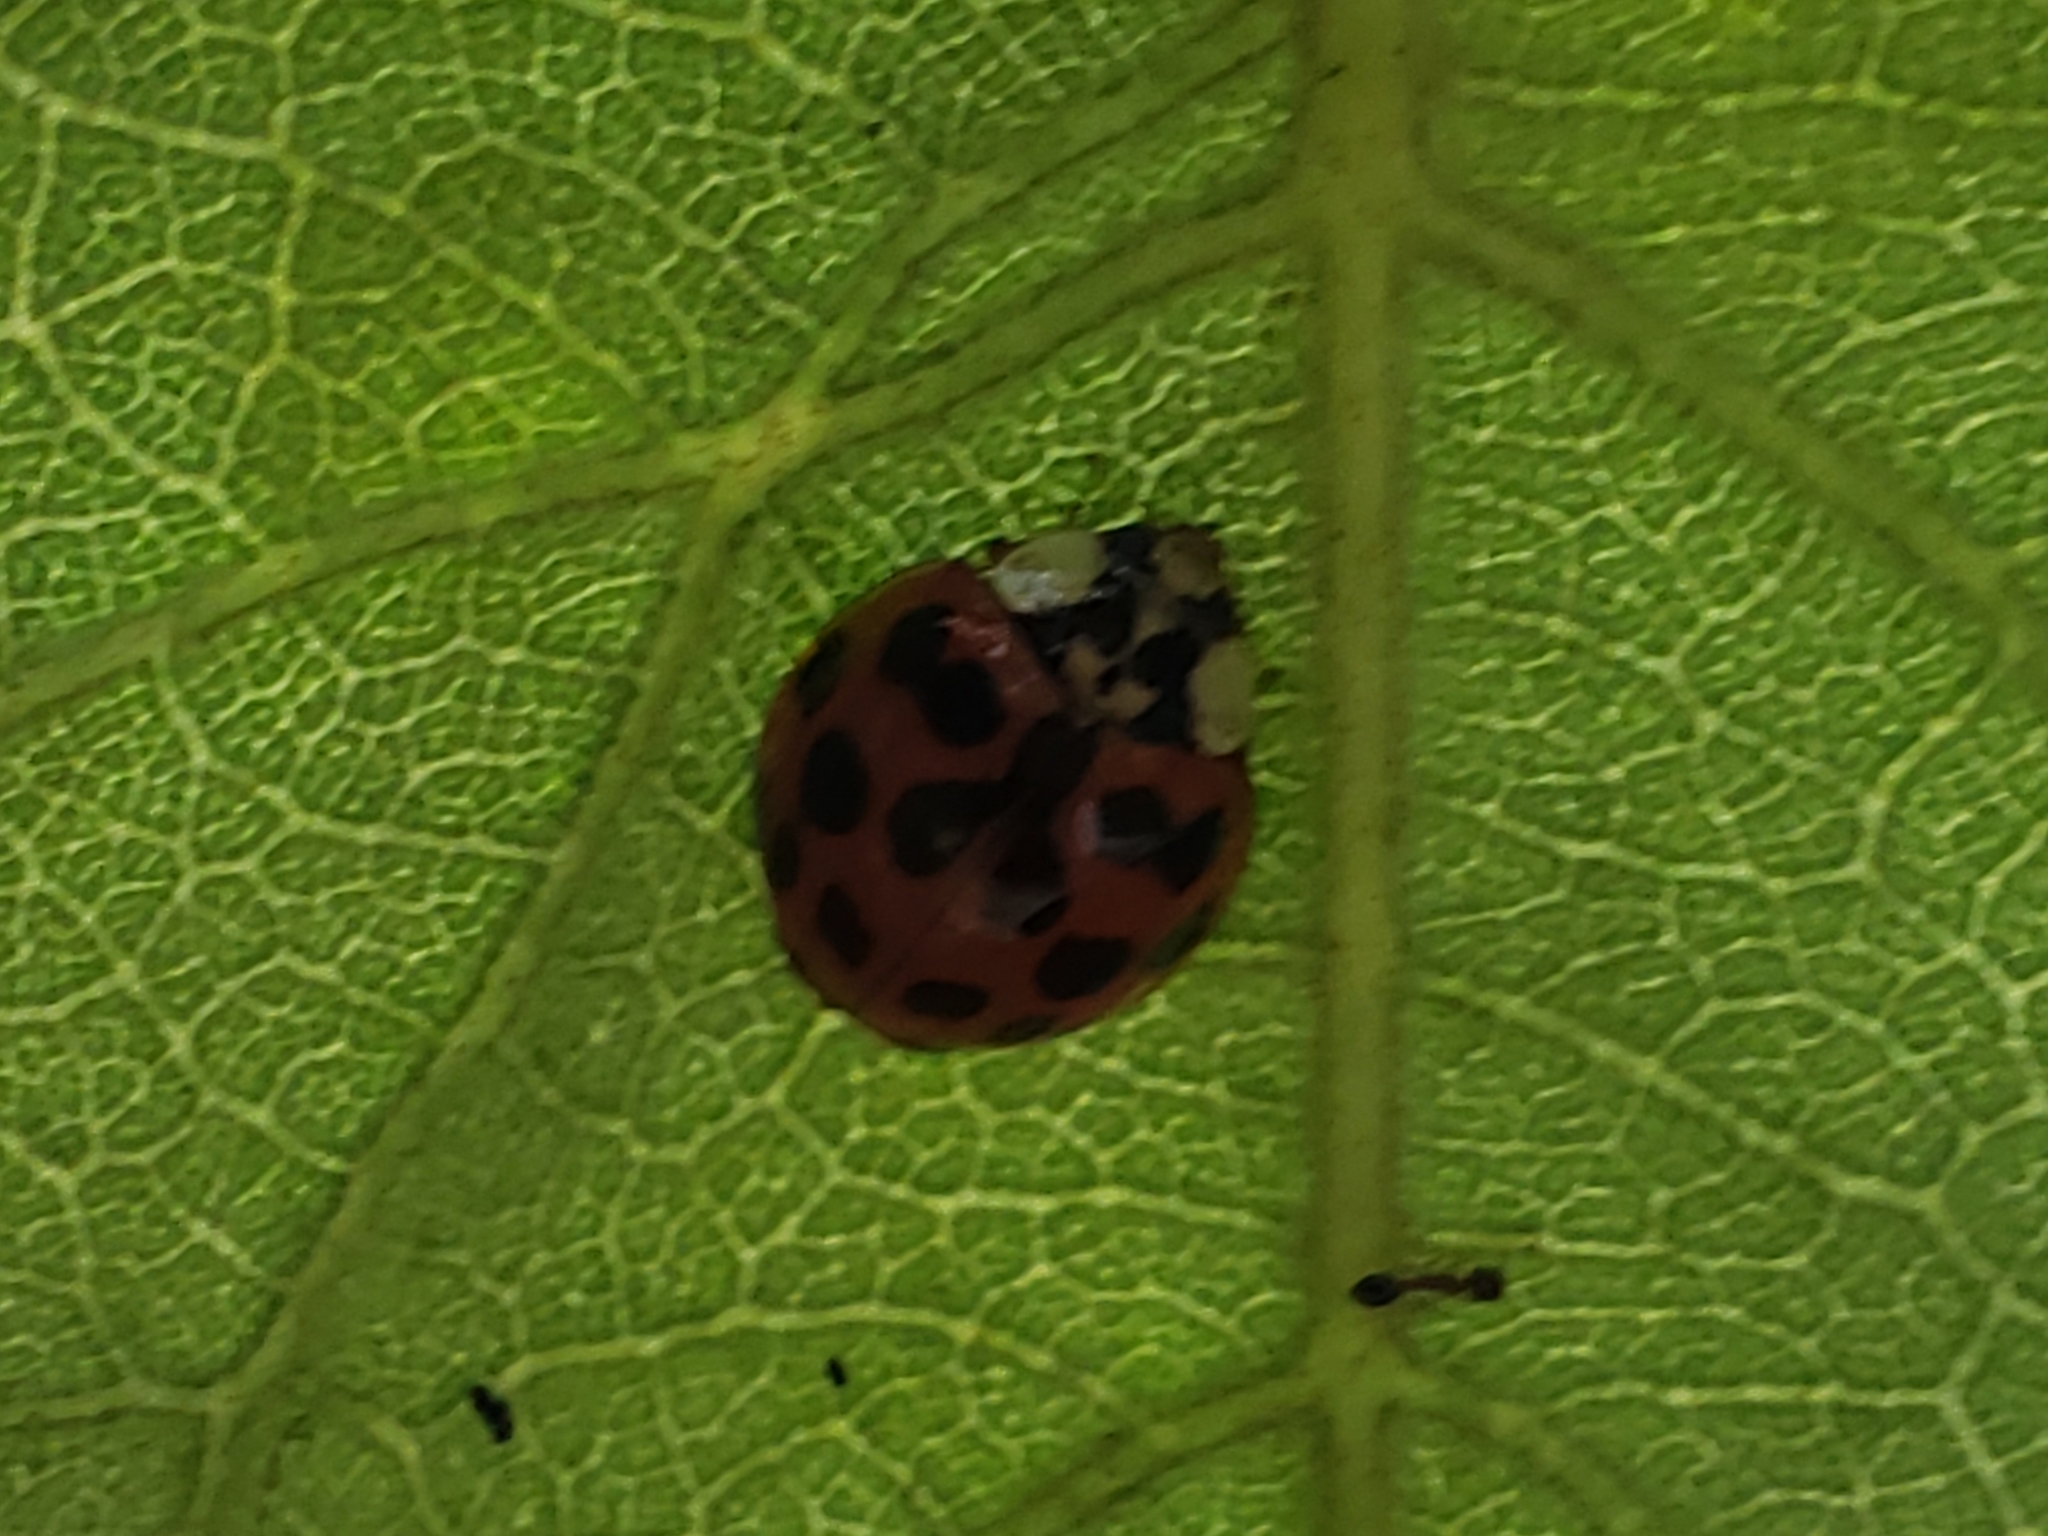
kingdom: Animalia
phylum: Arthropoda
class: Insecta
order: Coleoptera
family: Coccinellidae
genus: Harmonia
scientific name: Harmonia axyridis
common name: Harlequin ladybird
